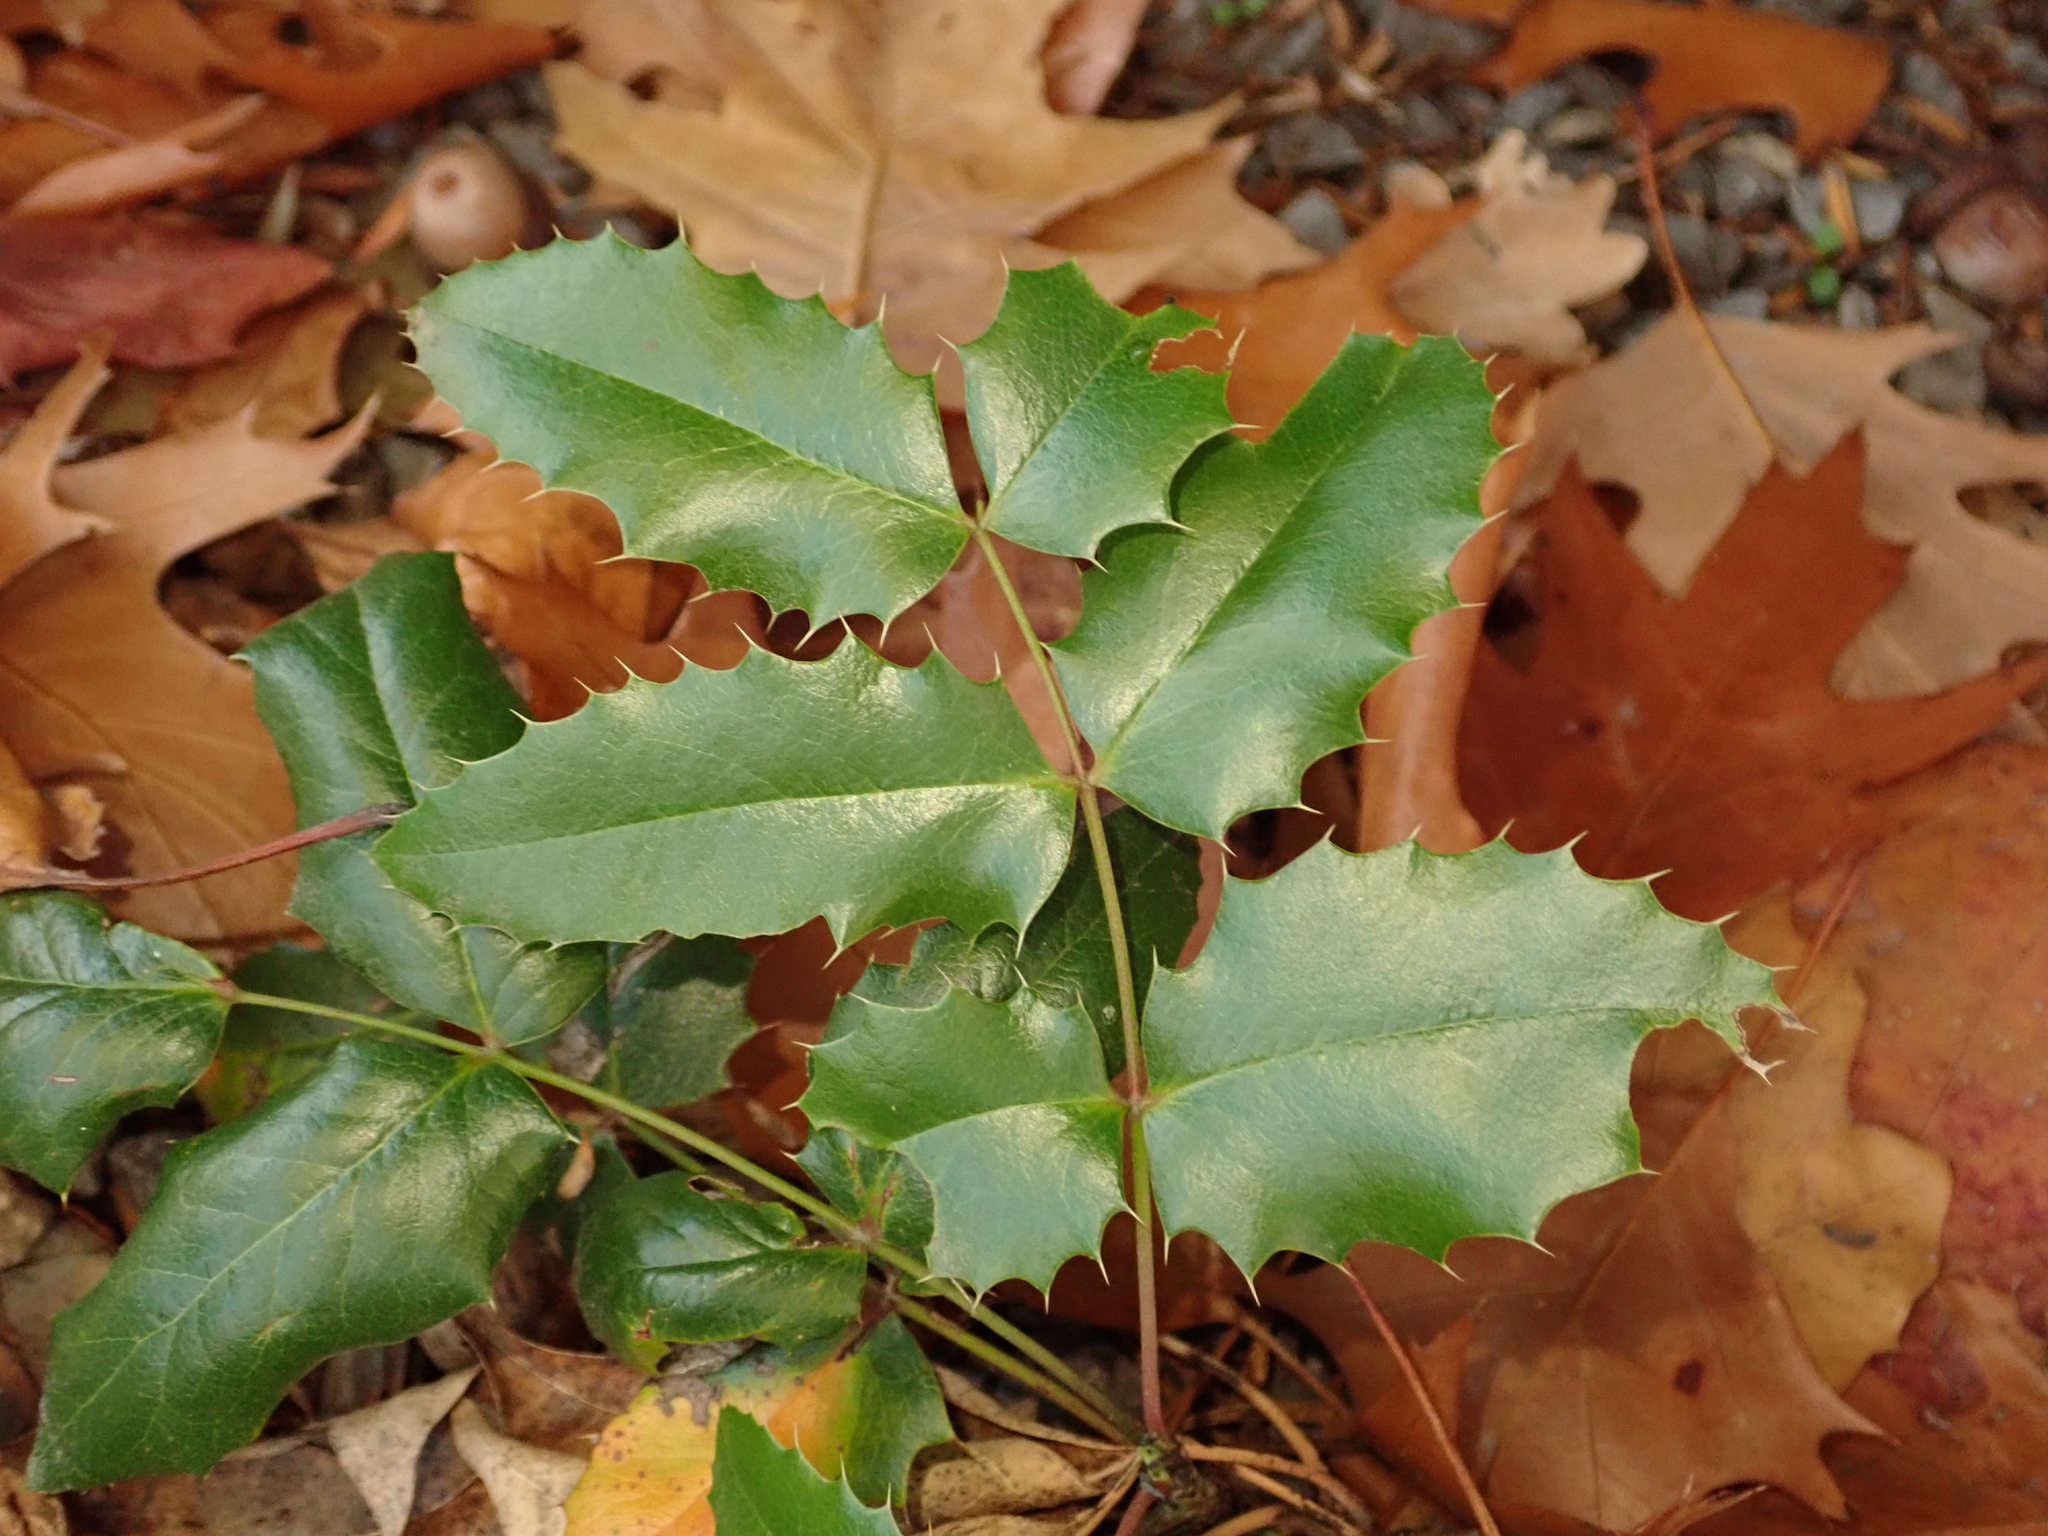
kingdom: Plantae
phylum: Tracheophyta
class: Magnoliopsida
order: Ranunculales
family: Berberidaceae
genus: Mahonia
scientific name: Mahonia aquifolium
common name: Oregon-grape
